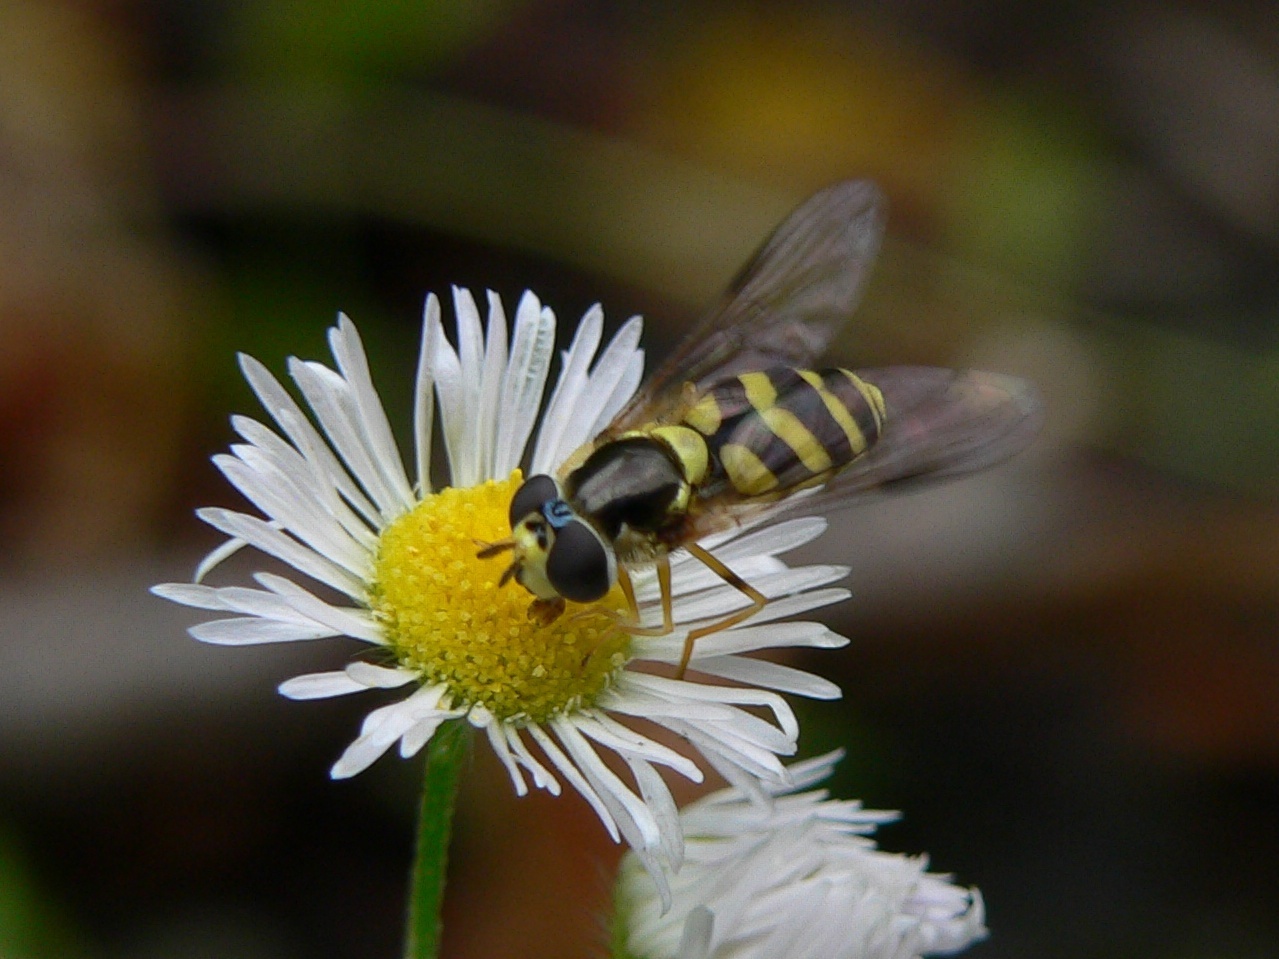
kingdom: Animalia
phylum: Arthropoda
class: Insecta
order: Diptera
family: Syrphidae
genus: Dasysyrphus
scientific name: Dasysyrphus albostriatus
